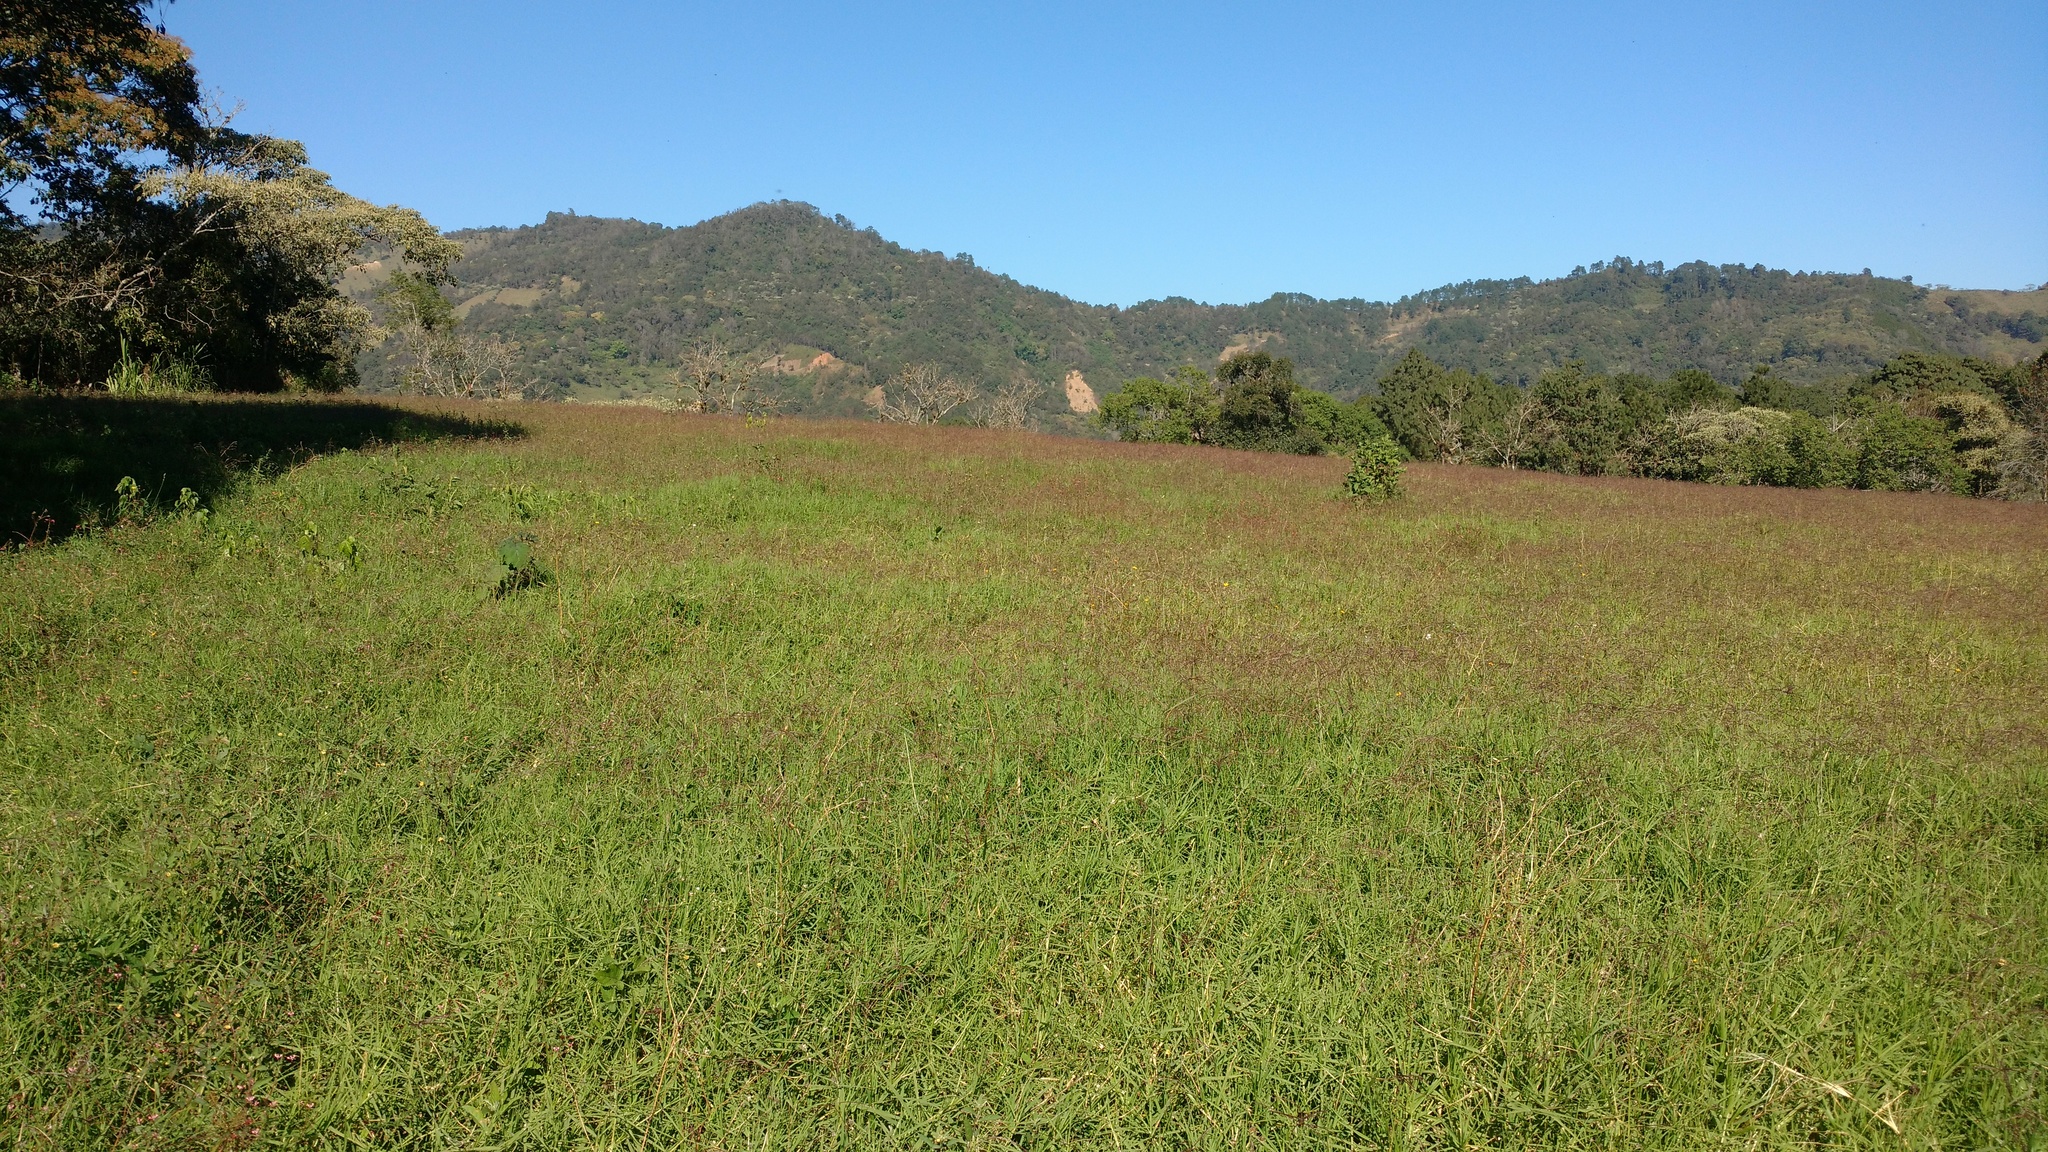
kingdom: Plantae
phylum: Tracheophyta
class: Liliopsida
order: Poales
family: Poaceae
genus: Chloris
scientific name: Chloris gayana
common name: Rhodes grass
